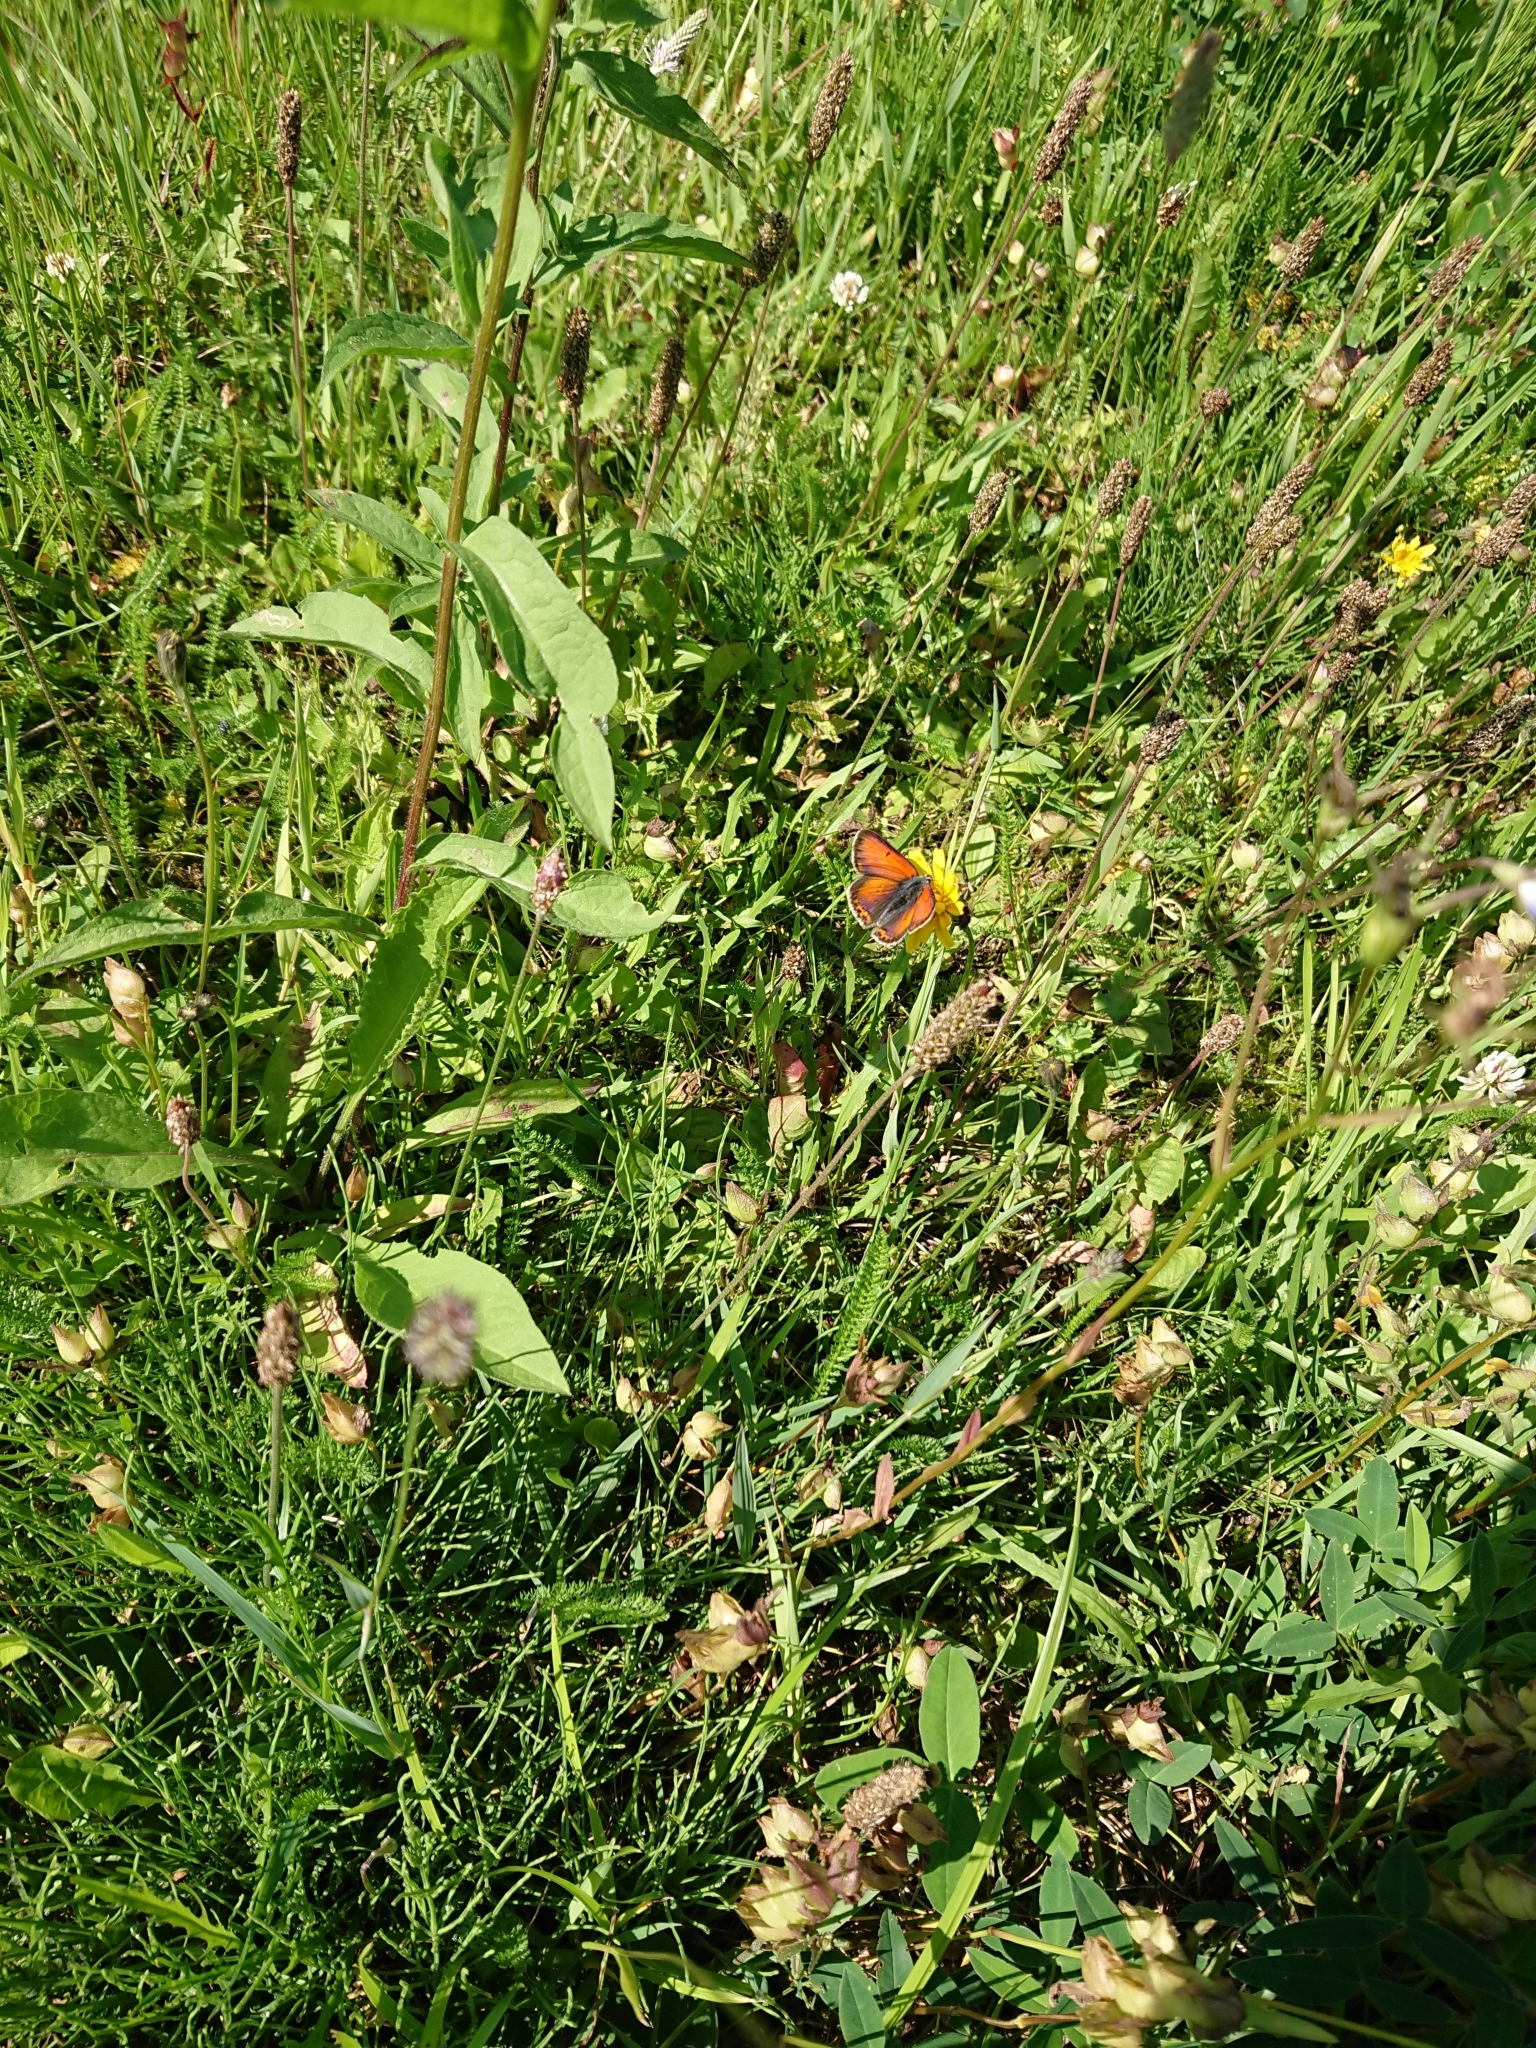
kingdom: Animalia
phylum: Arthropoda
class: Insecta
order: Lepidoptera
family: Lycaenidae
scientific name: Lycaenidae
